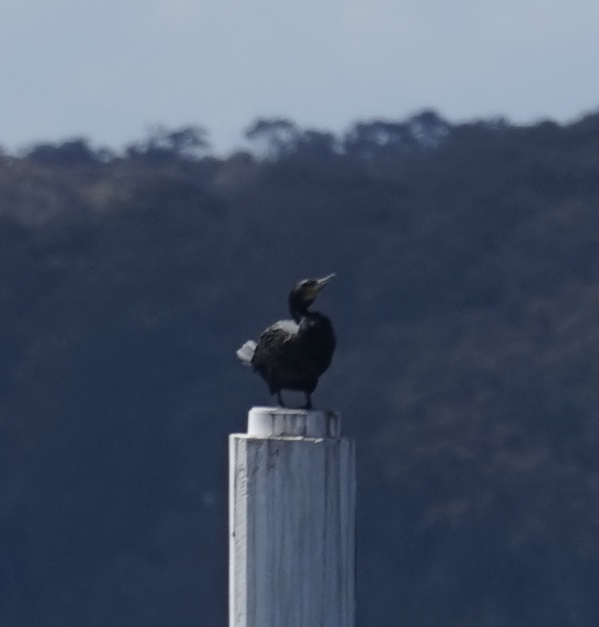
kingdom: Animalia
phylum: Chordata
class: Aves
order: Suliformes
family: Phalacrocoracidae
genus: Phalacrocorax
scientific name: Phalacrocorax carbo
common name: Great cormorant
